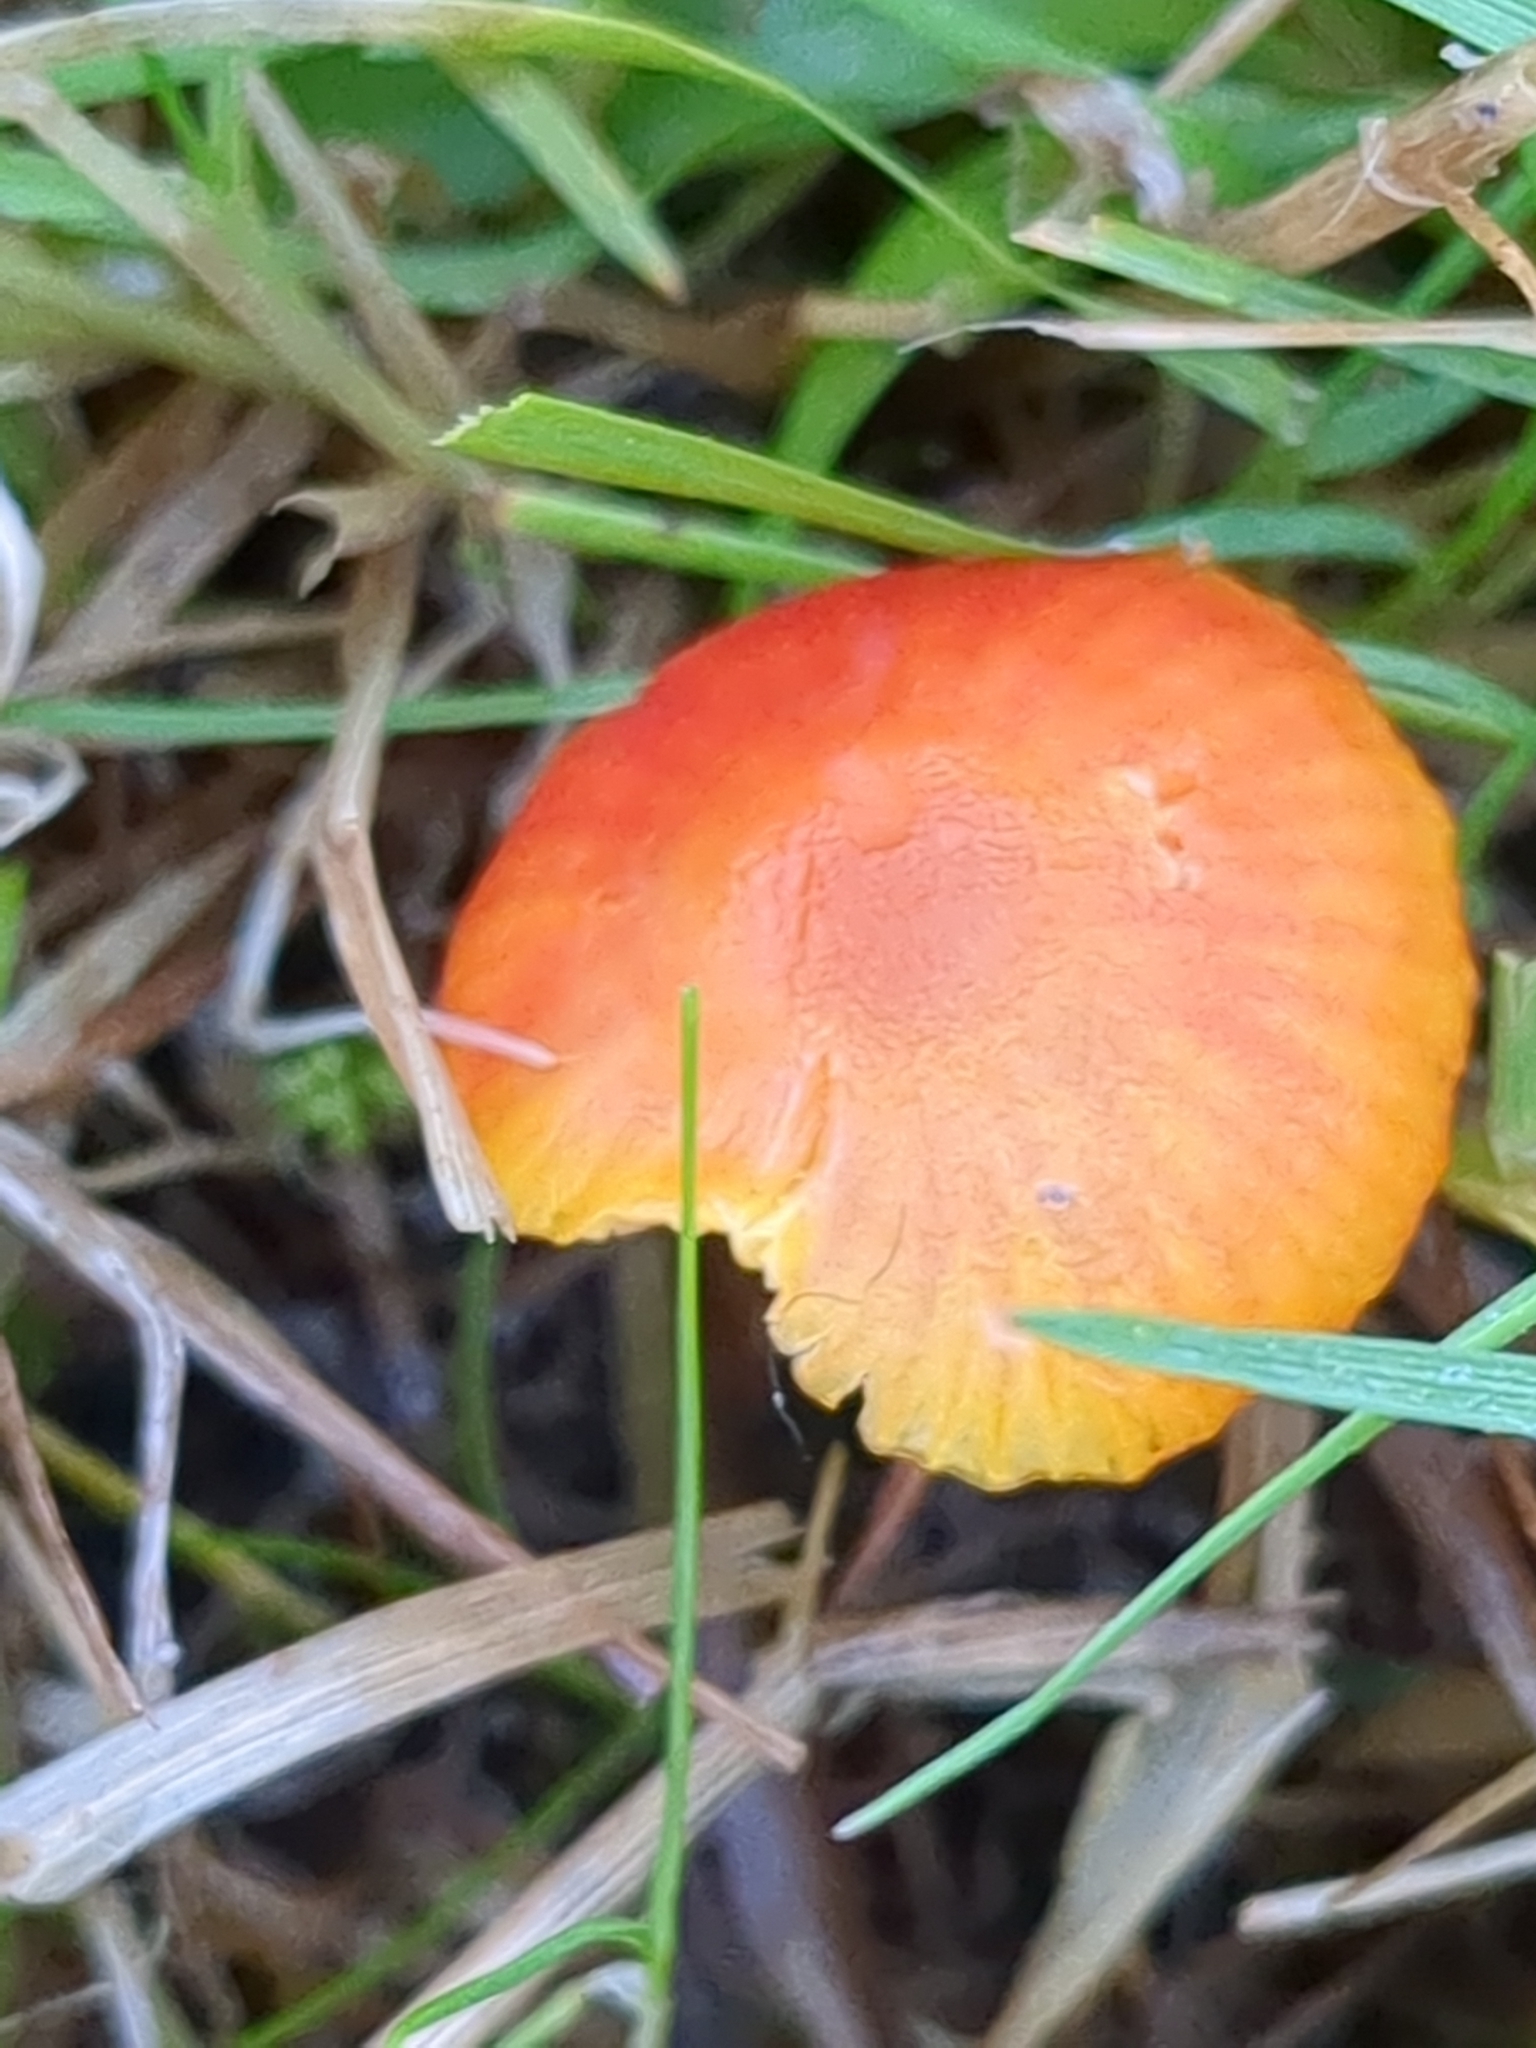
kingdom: Fungi
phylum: Basidiomycota
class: Agaricomycetes
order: Agaricales
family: Hygrophoraceae
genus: Hygrocybe
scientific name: Hygrocybe insipida
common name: Spangle waxcap
